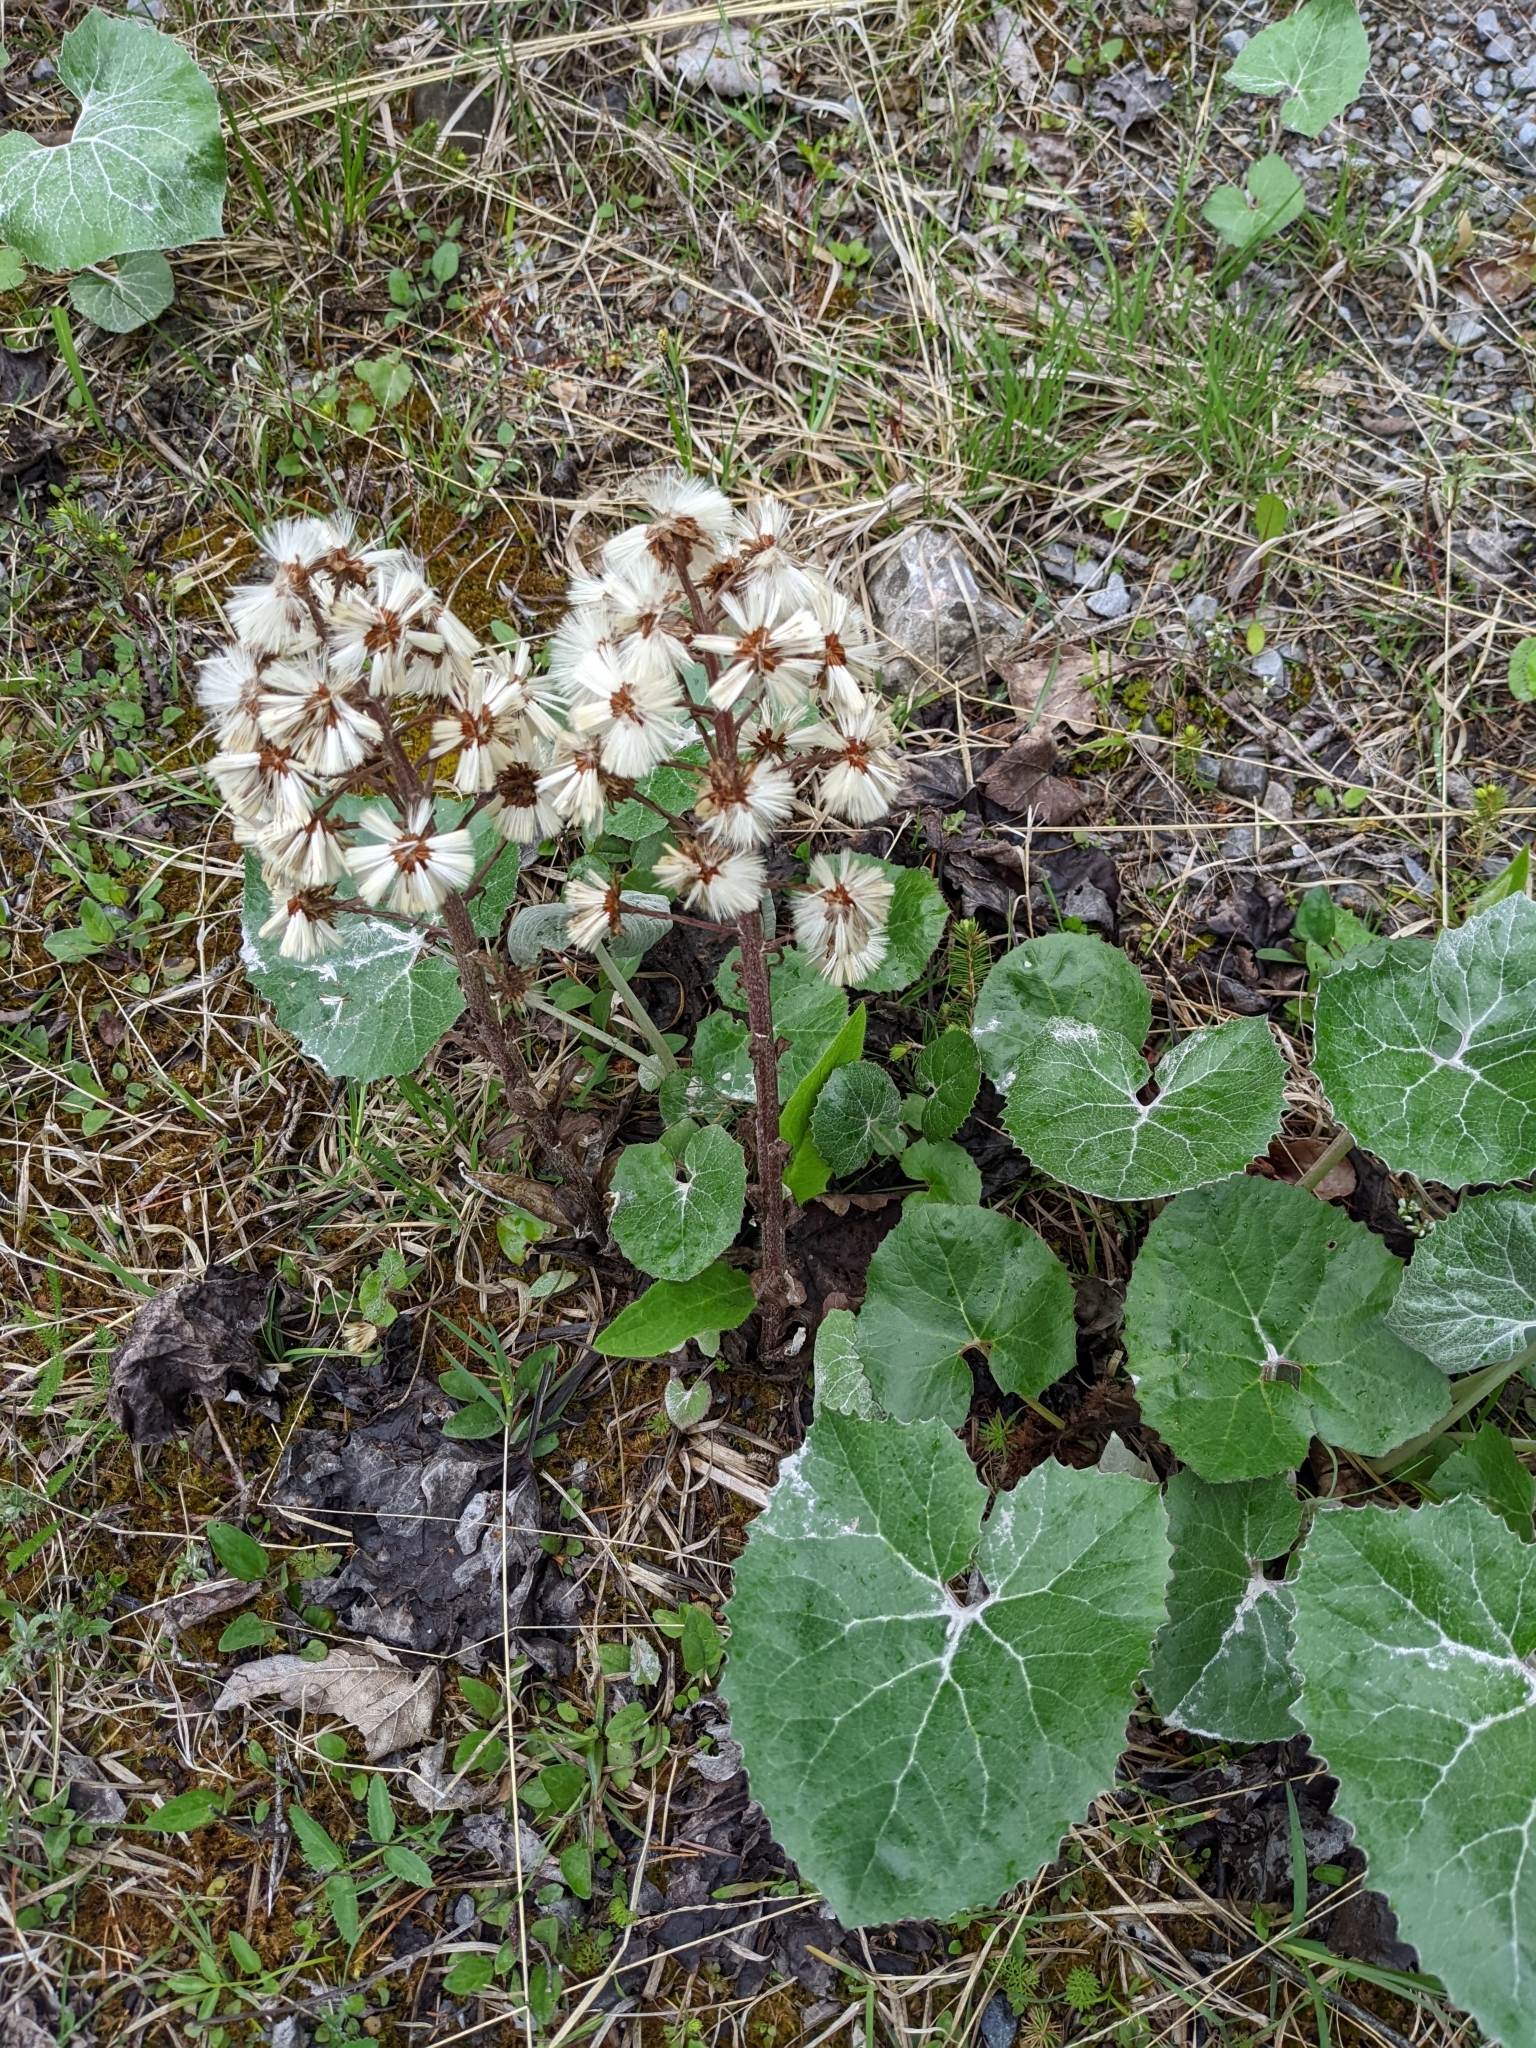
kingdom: Plantae
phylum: Tracheophyta
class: Magnoliopsida
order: Asterales
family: Asteraceae
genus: Petasites
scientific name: Petasites paradoxus
